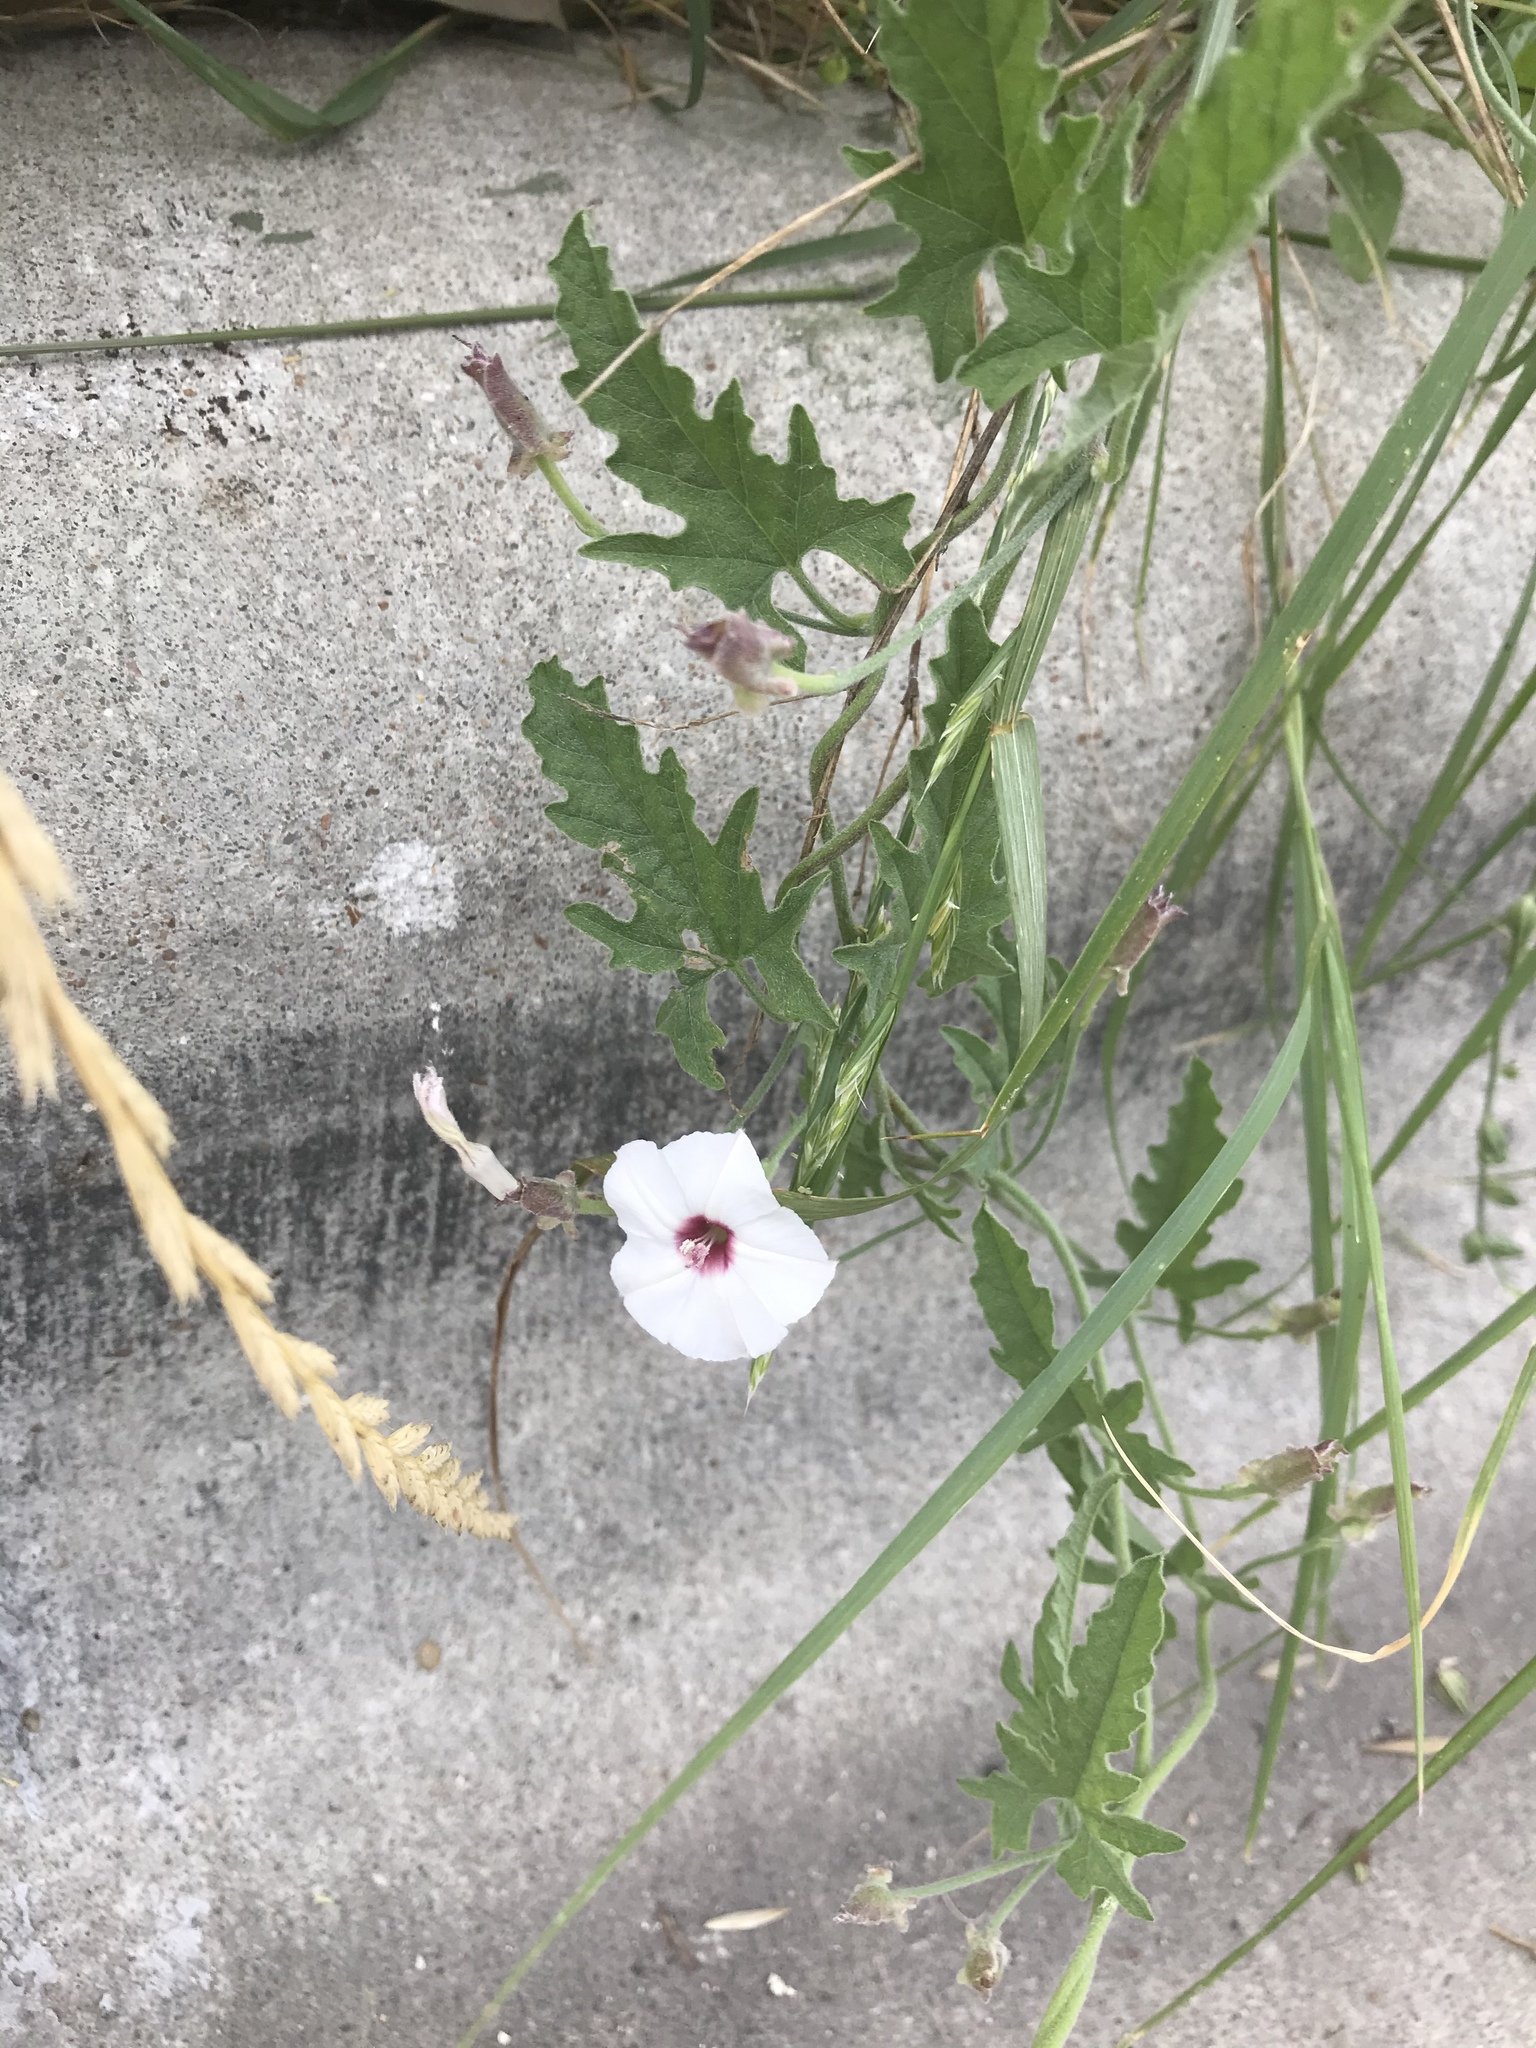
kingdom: Plantae
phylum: Tracheophyta
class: Magnoliopsida
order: Solanales
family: Convolvulaceae
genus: Convolvulus
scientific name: Convolvulus equitans
